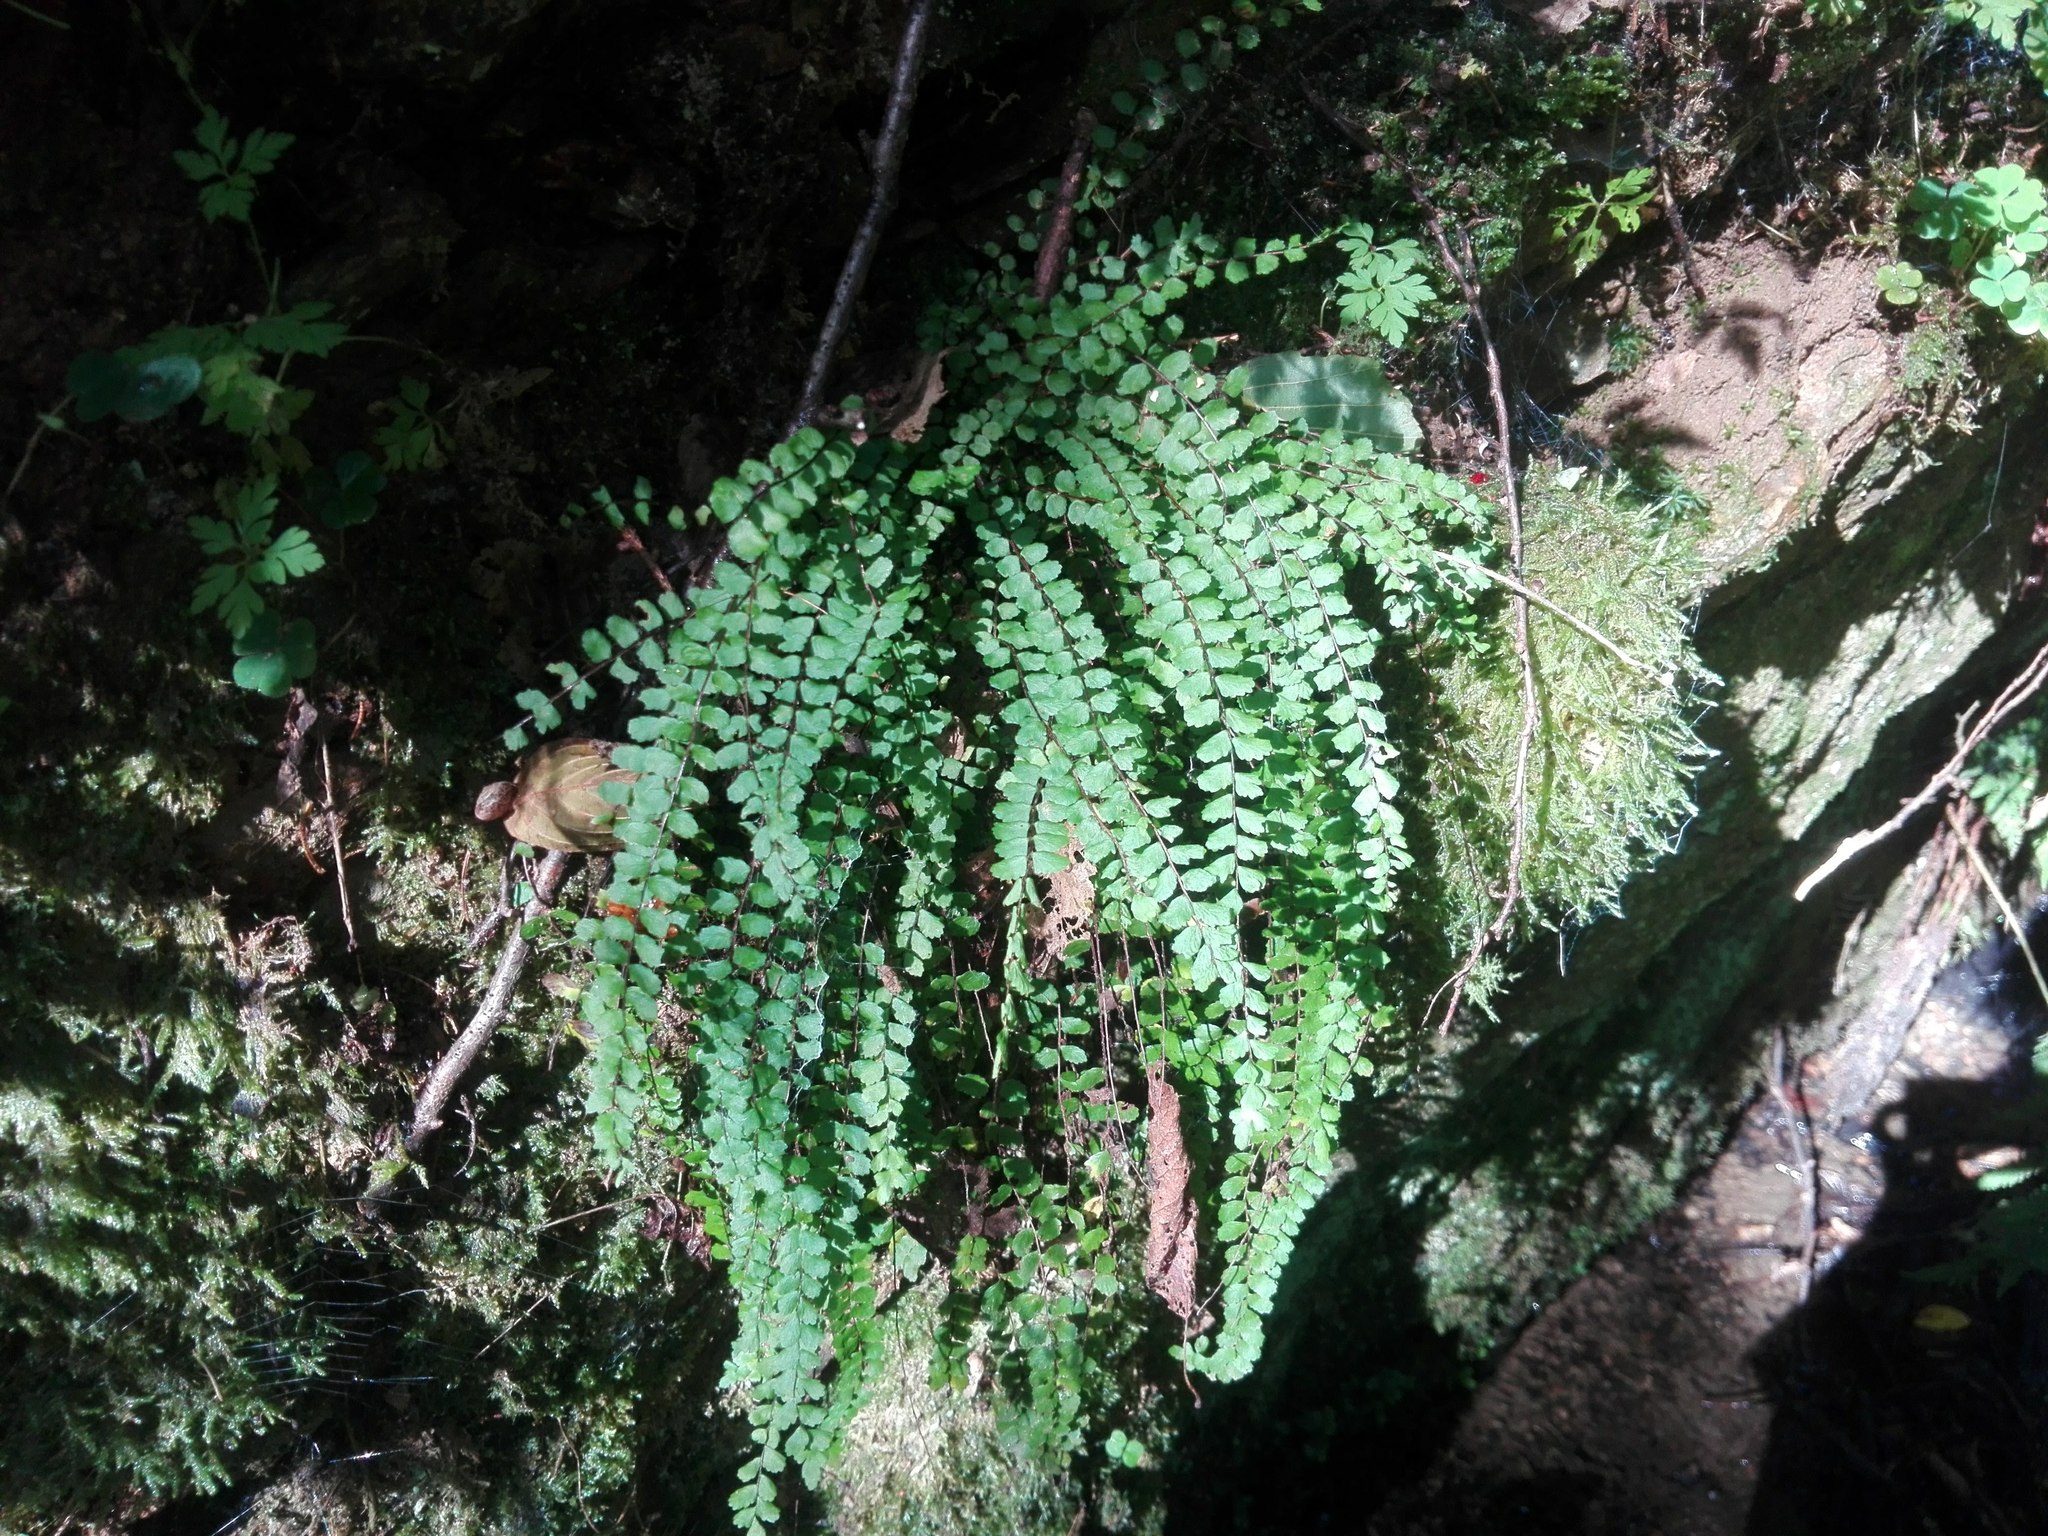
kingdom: Plantae
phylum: Tracheophyta
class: Polypodiopsida
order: Polypodiales
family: Aspleniaceae
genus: Asplenium
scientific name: Asplenium trichomanes
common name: Maidenhair spleenwort
